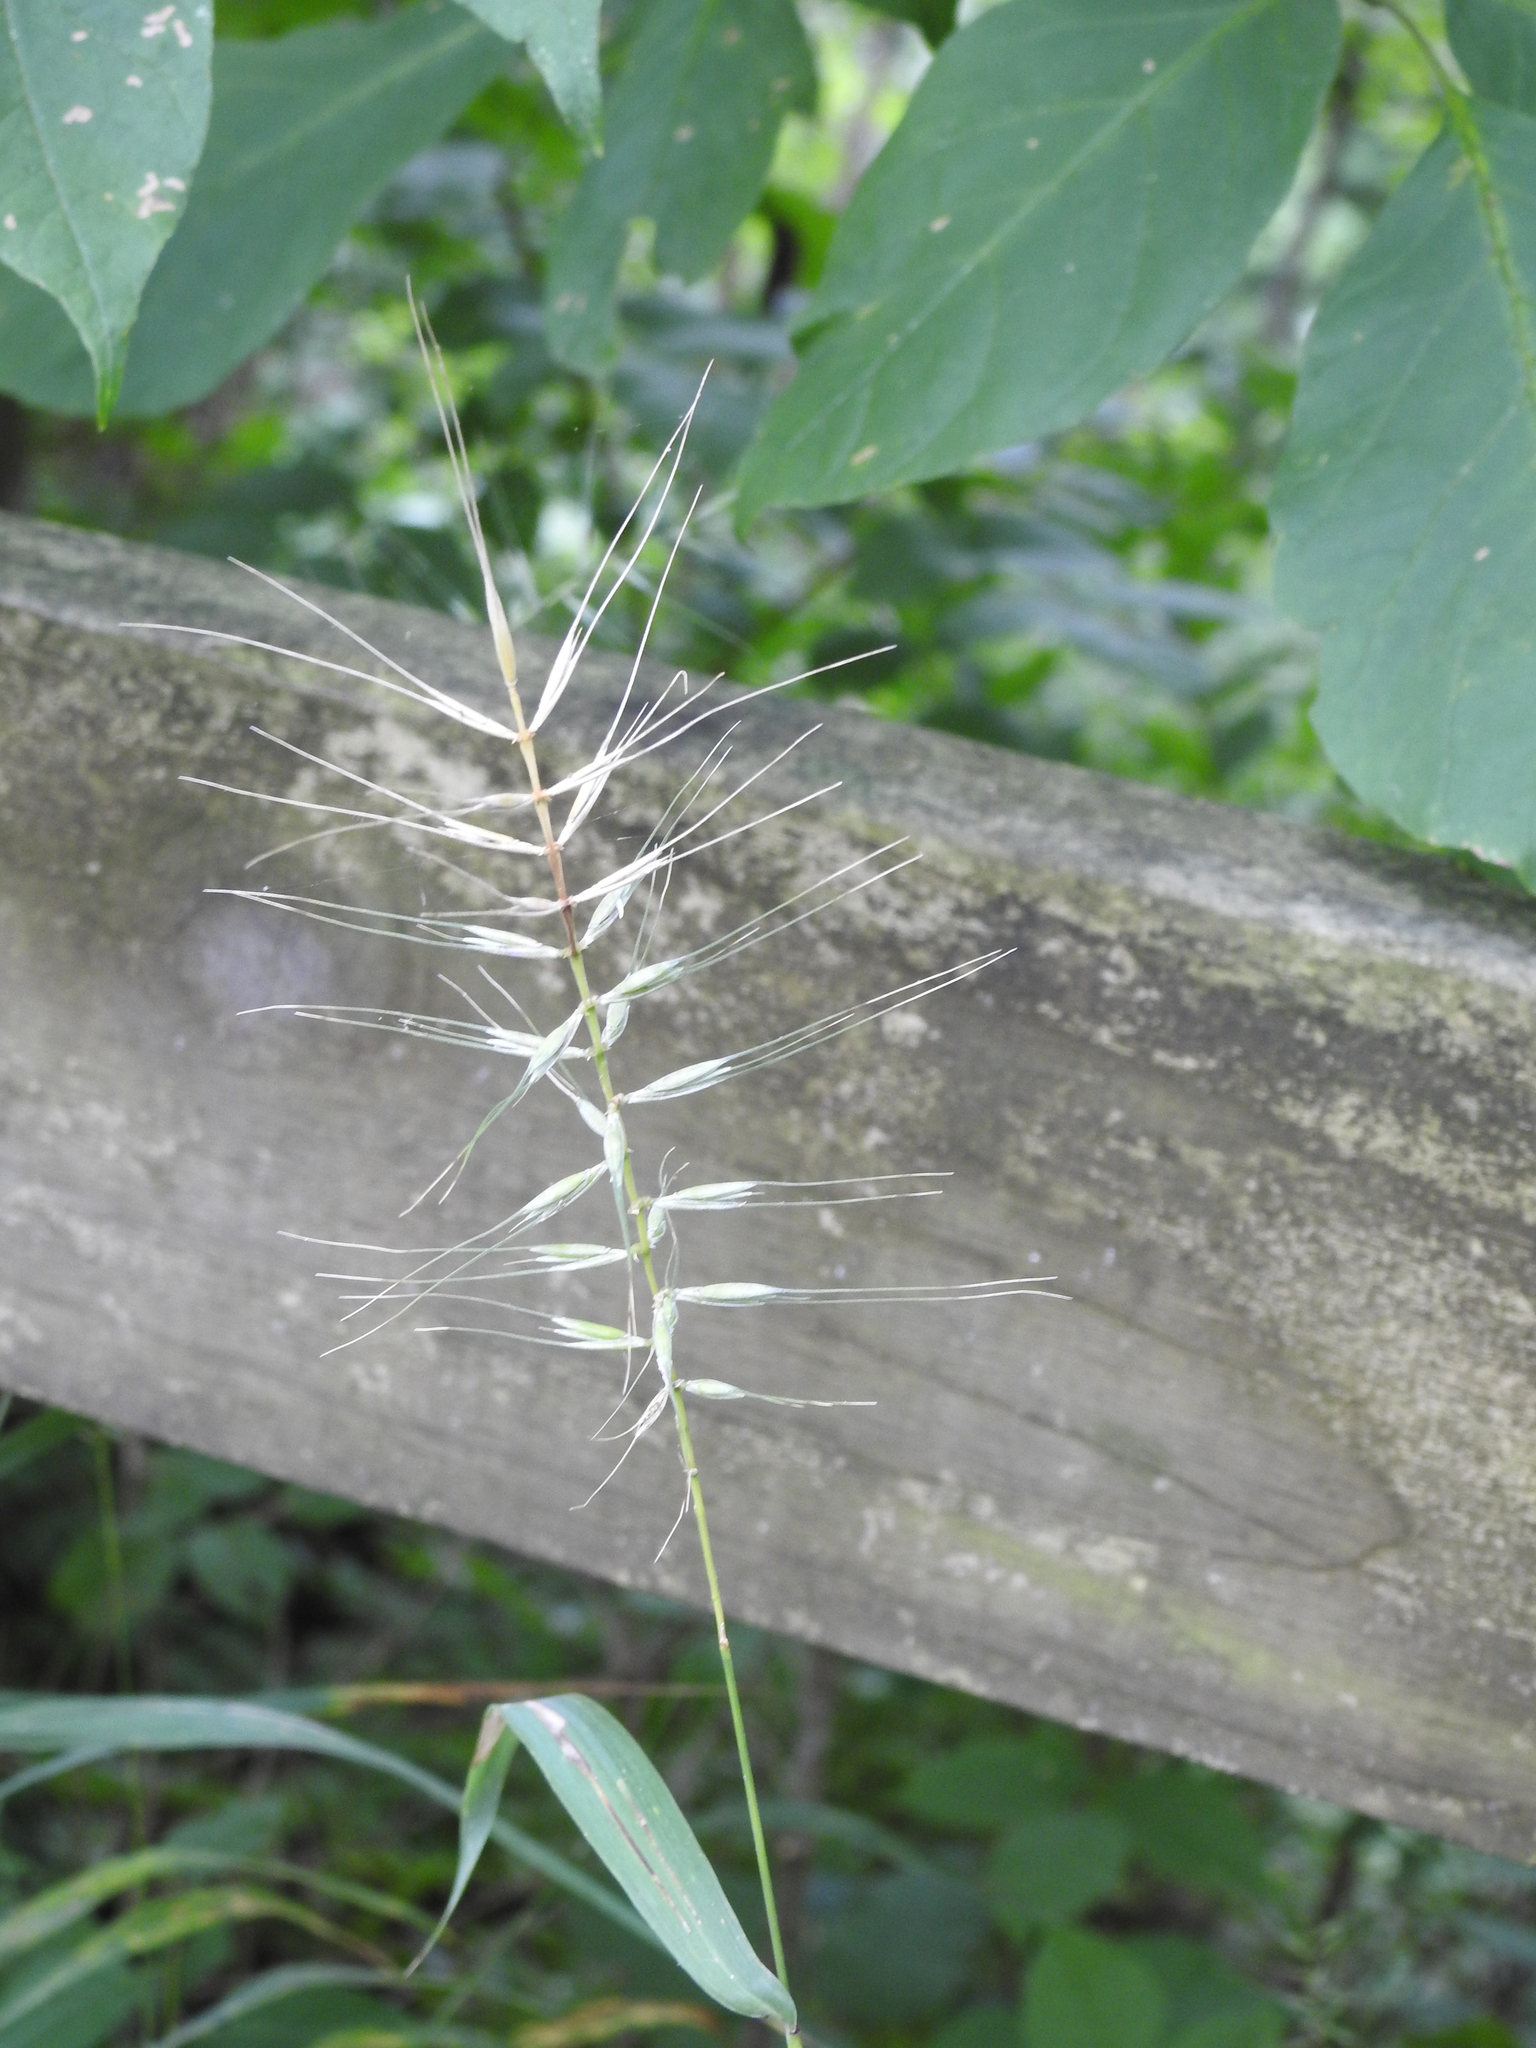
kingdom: Plantae
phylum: Tracheophyta
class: Liliopsida
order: Poales
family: Poaceae
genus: Elymus
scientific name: Elymus hystrix
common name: Bottlebrush grass
